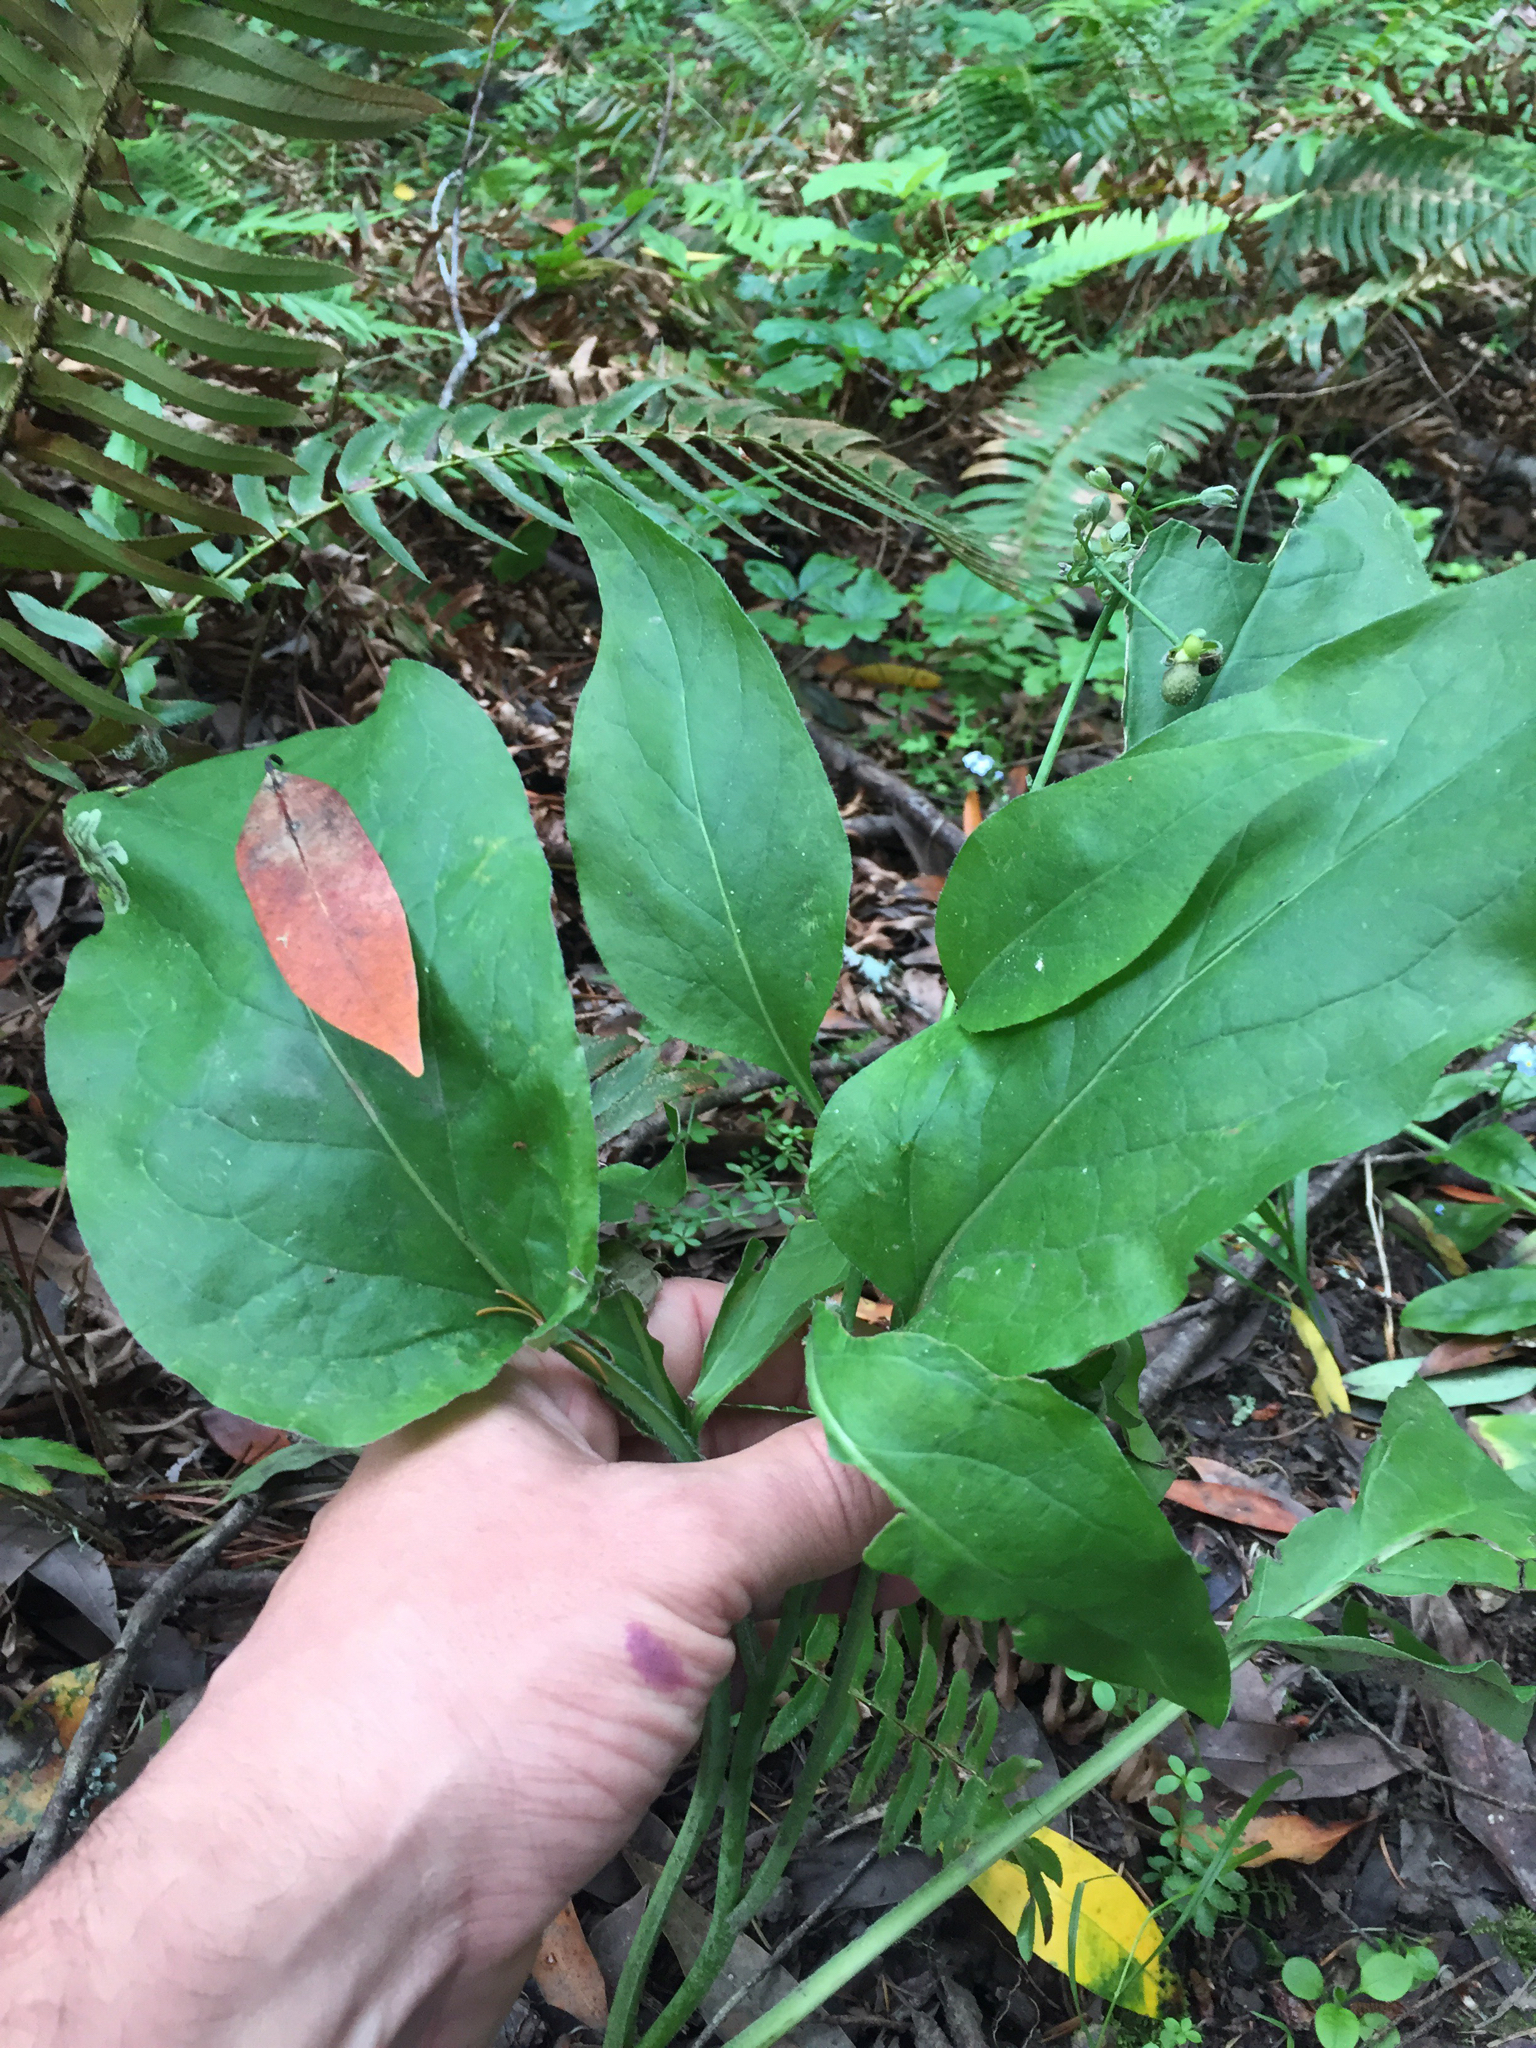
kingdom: Plantae
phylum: Tracheophyta
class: Magnoliopsida
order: Boraginales
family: Boraginaceae
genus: Adelinia
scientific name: Adelinia grande
